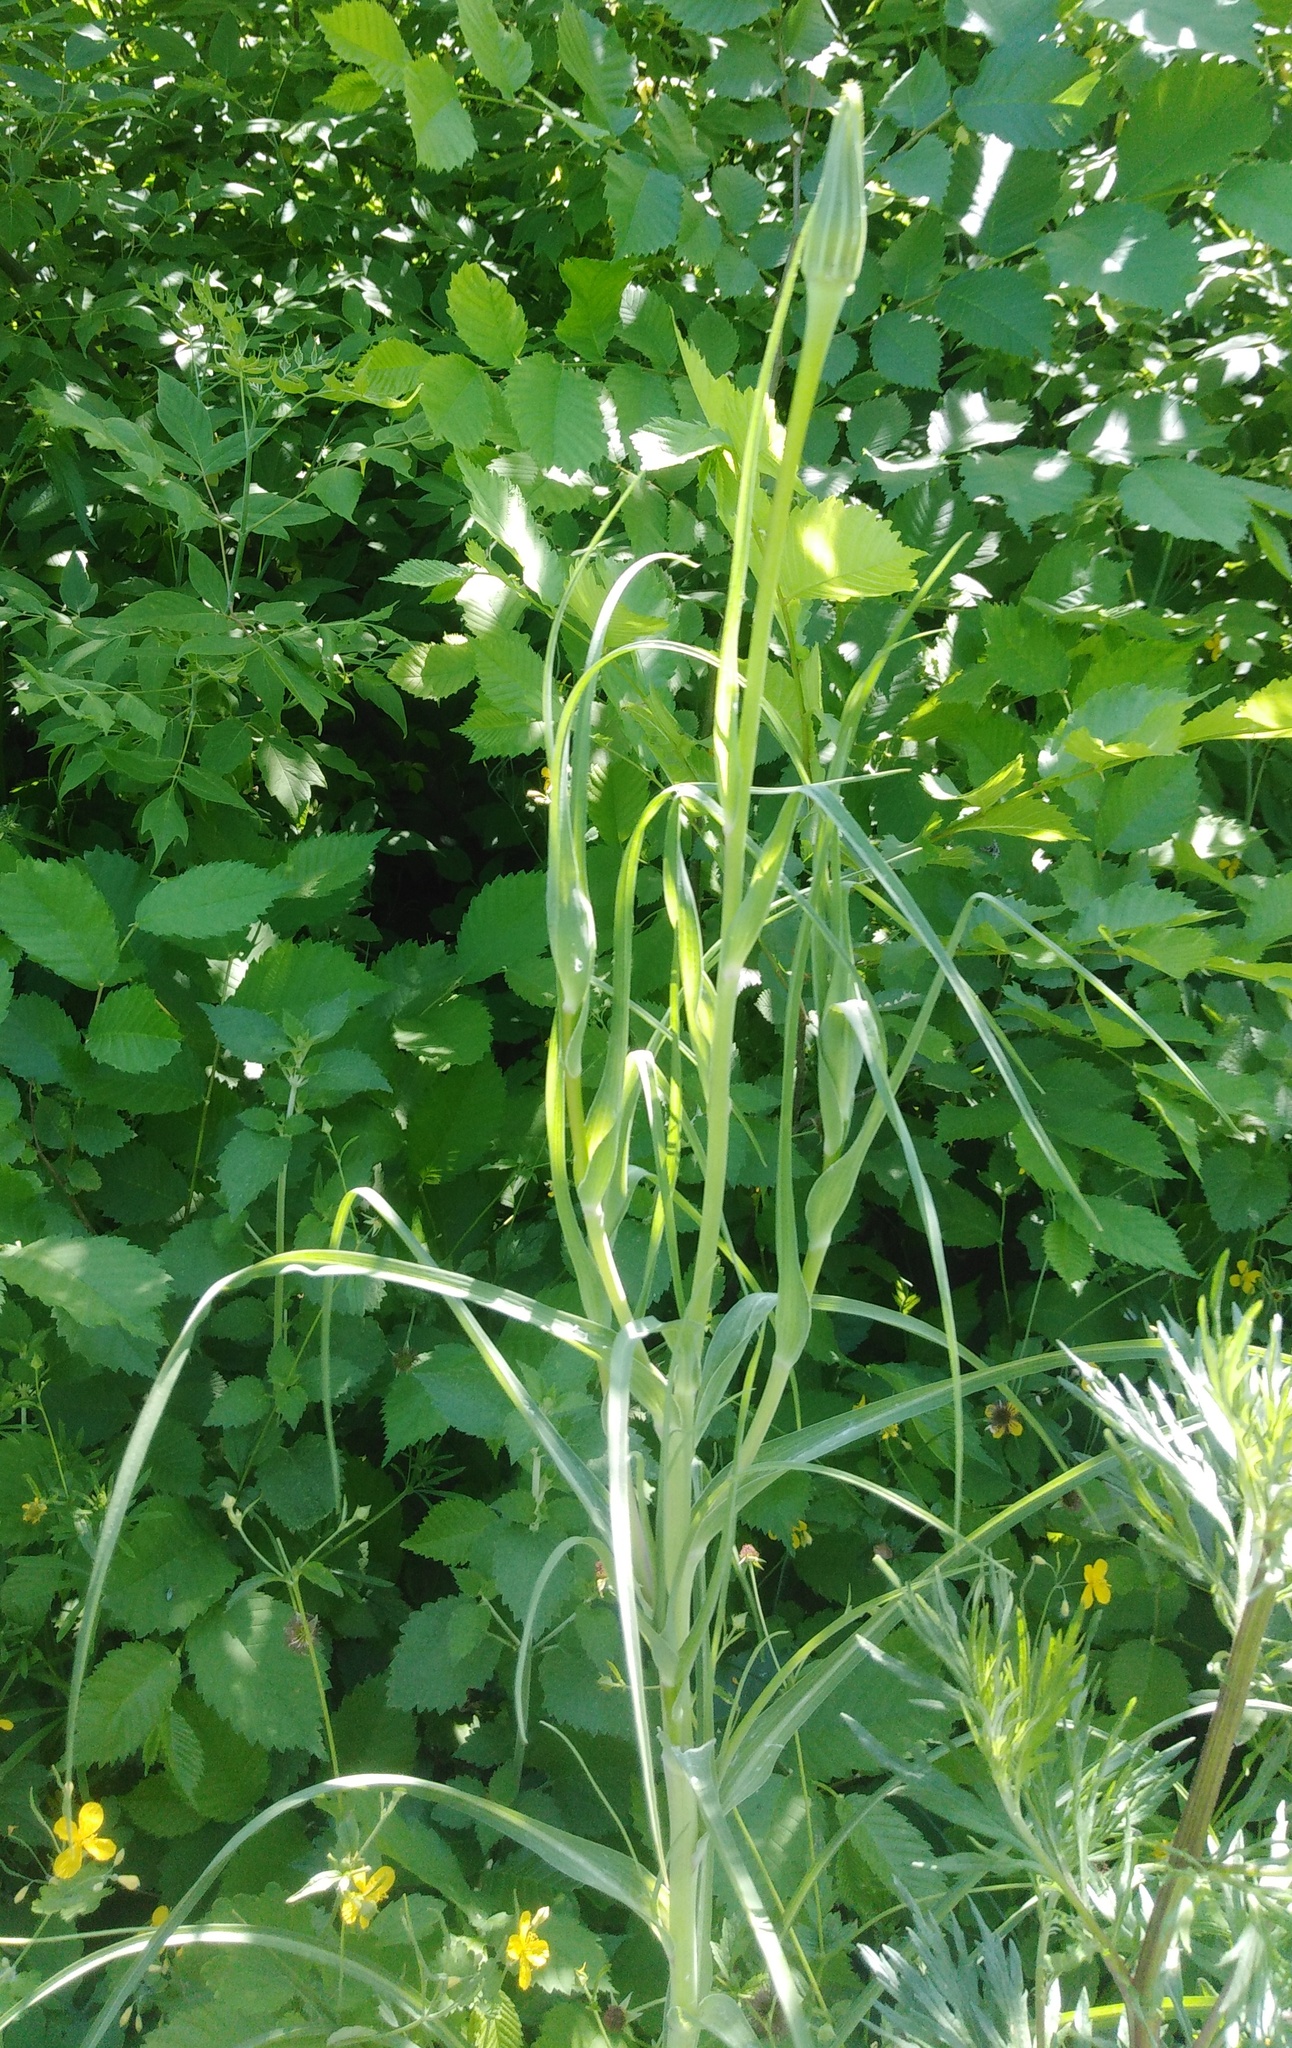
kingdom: Plantae
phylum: Tracheophyta
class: Magnoliopsida
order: Asterales
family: Asteraceae
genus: Tragopogon
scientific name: Tragopogon dubius
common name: Yellow salsify
